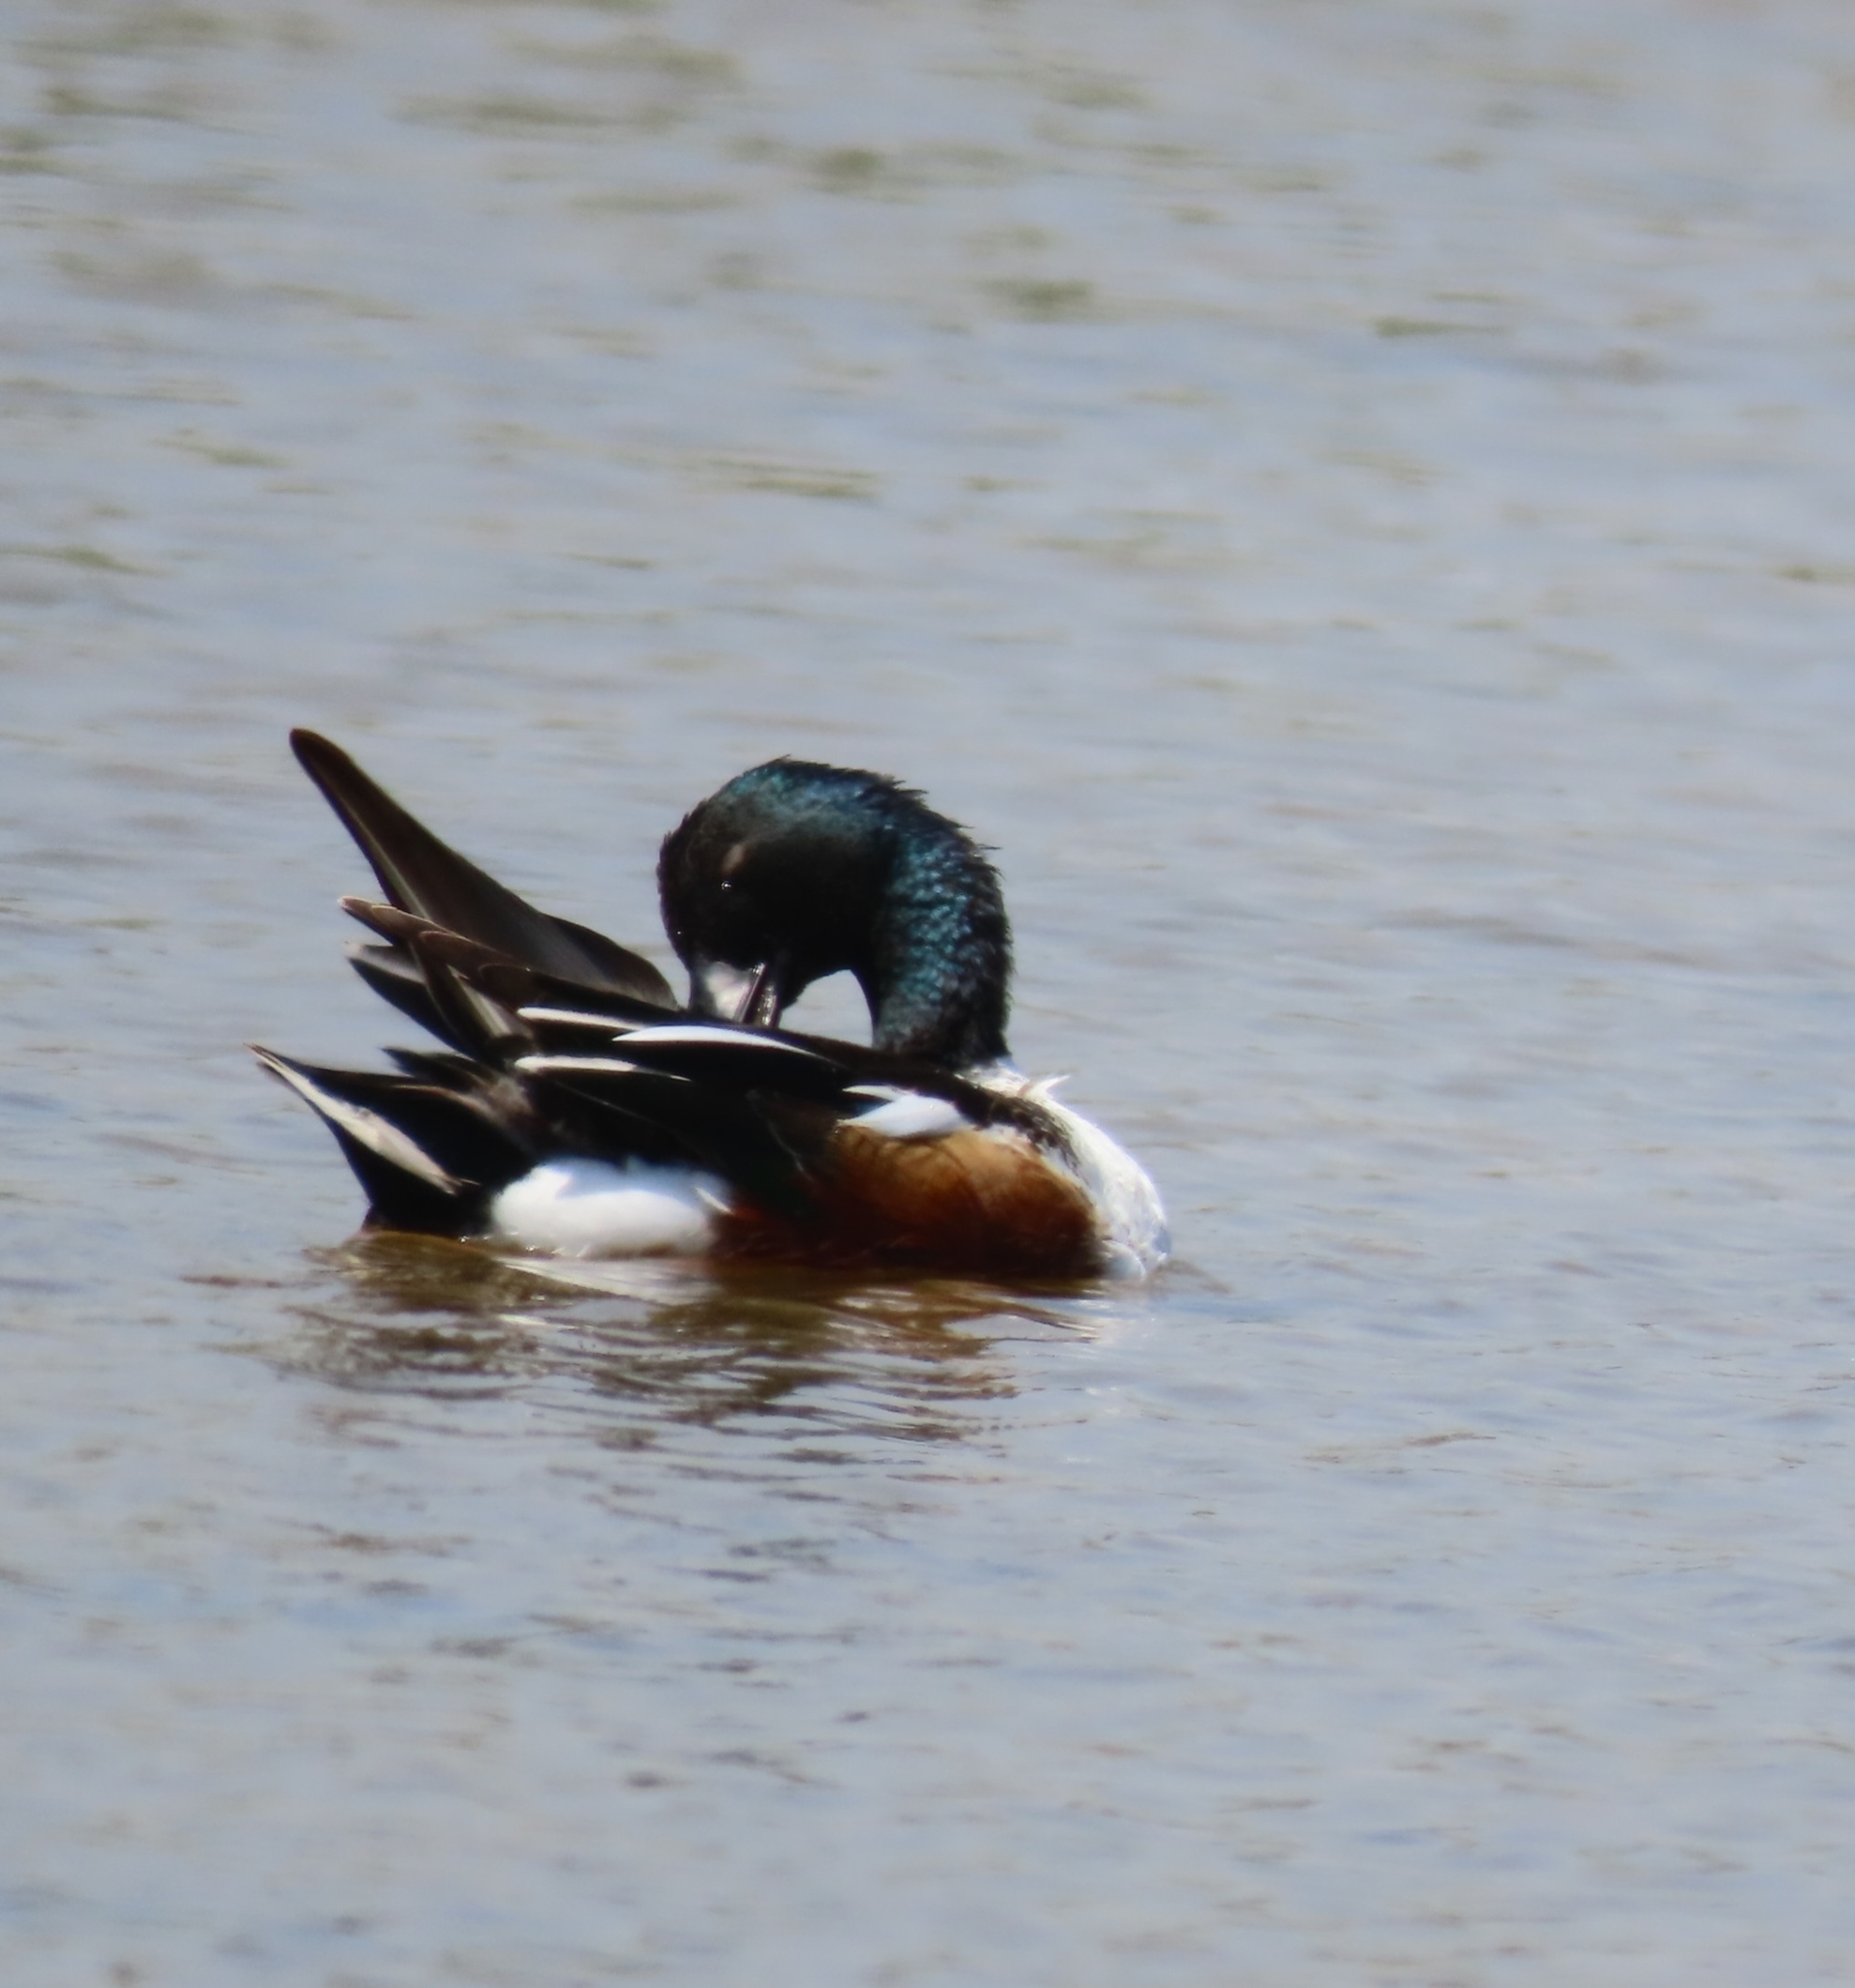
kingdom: Animalia
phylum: Chordata
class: Aves
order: Anseriformes
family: Anatidae
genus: Spatula
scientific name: Spatula clypeata
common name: Northern shoveler
